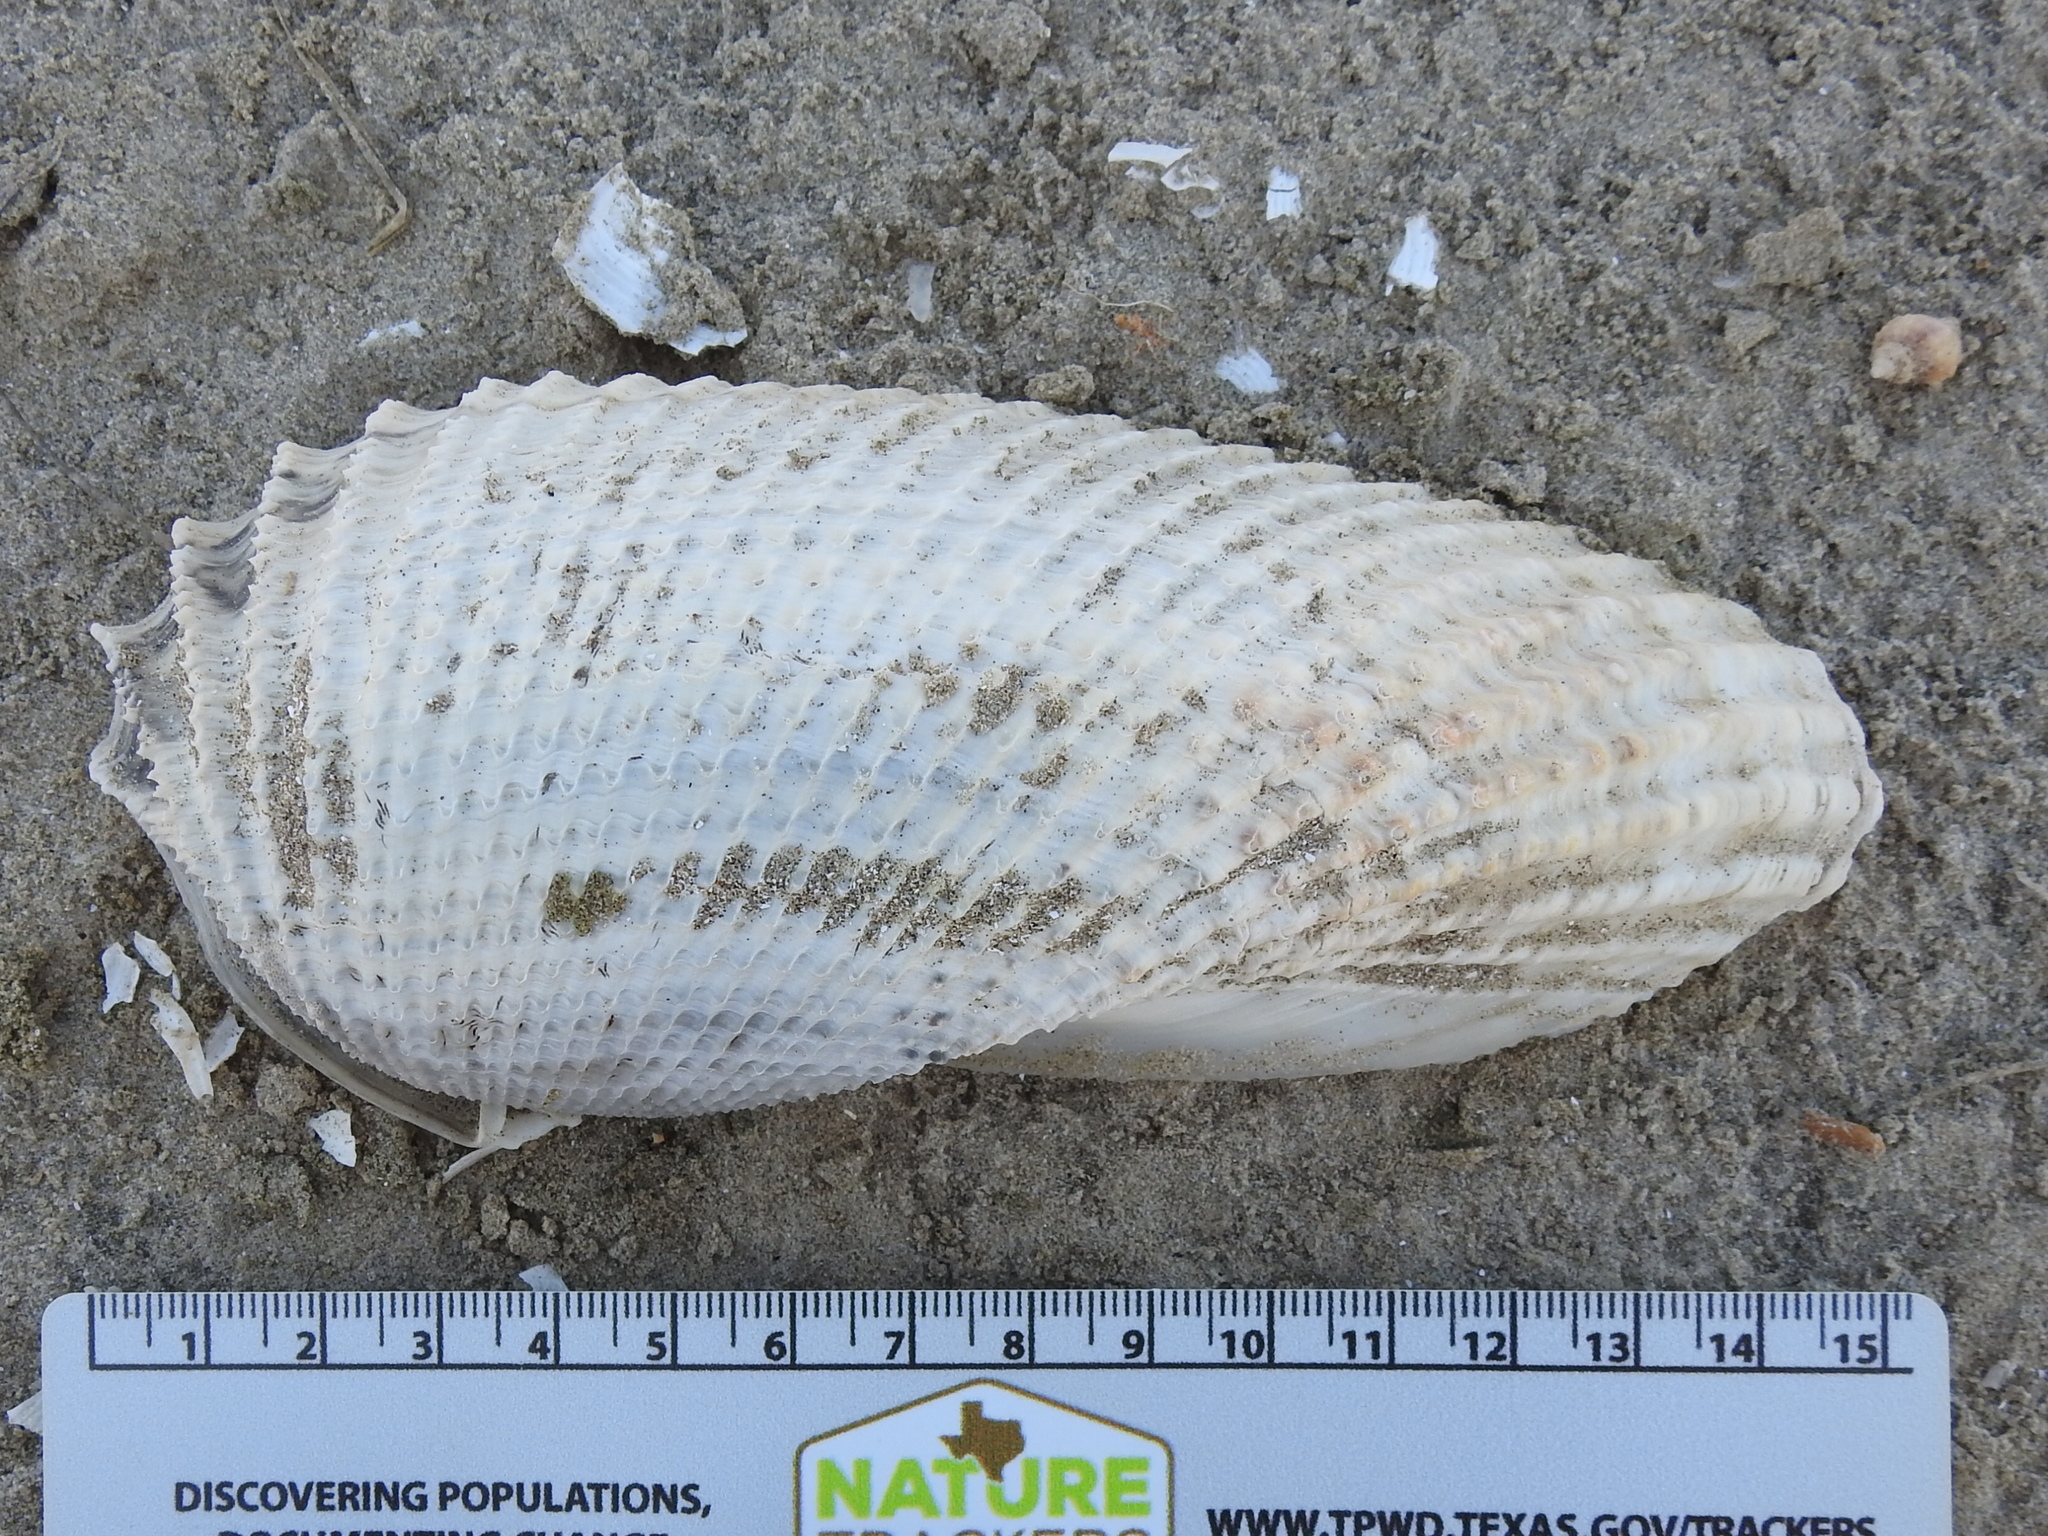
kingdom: Animalia
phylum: Mollusca
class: Bivalvia
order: Myida
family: Pholadidae
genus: Cyrtopleura
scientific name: Cyrtopleura costata
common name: Angel wing
